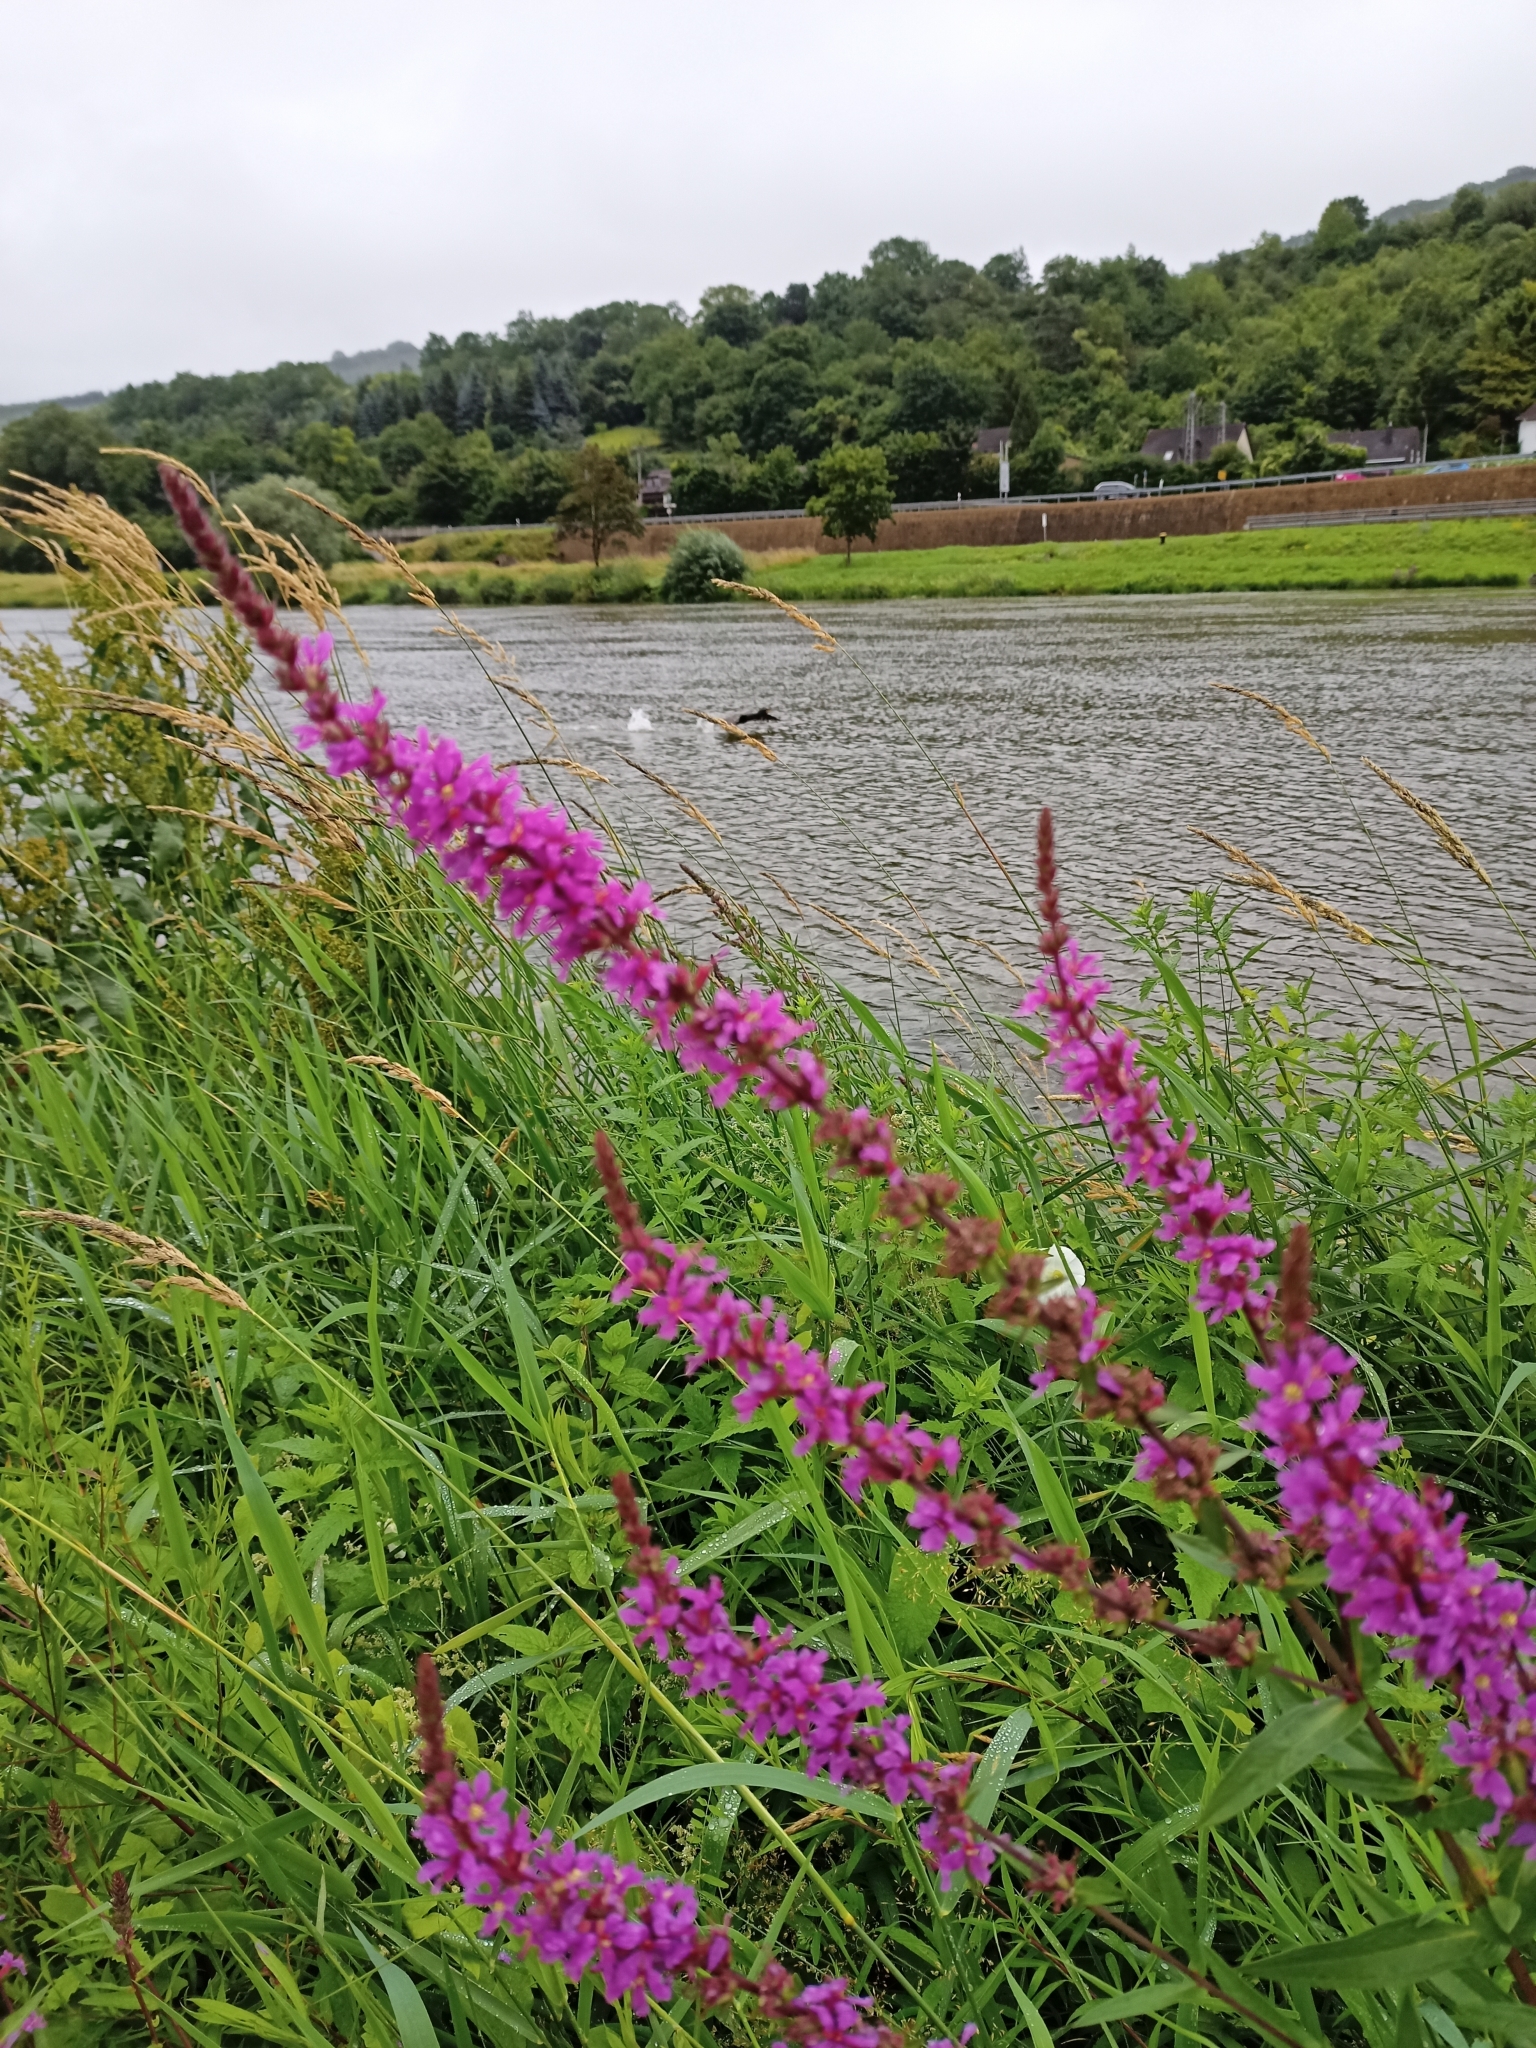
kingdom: Plantae
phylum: Tracheophyta
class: Magnoliopsida
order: Myrtales
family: Lythraceae
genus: Lythrum
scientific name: Lythrum salicaria
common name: Purple loosestrife
